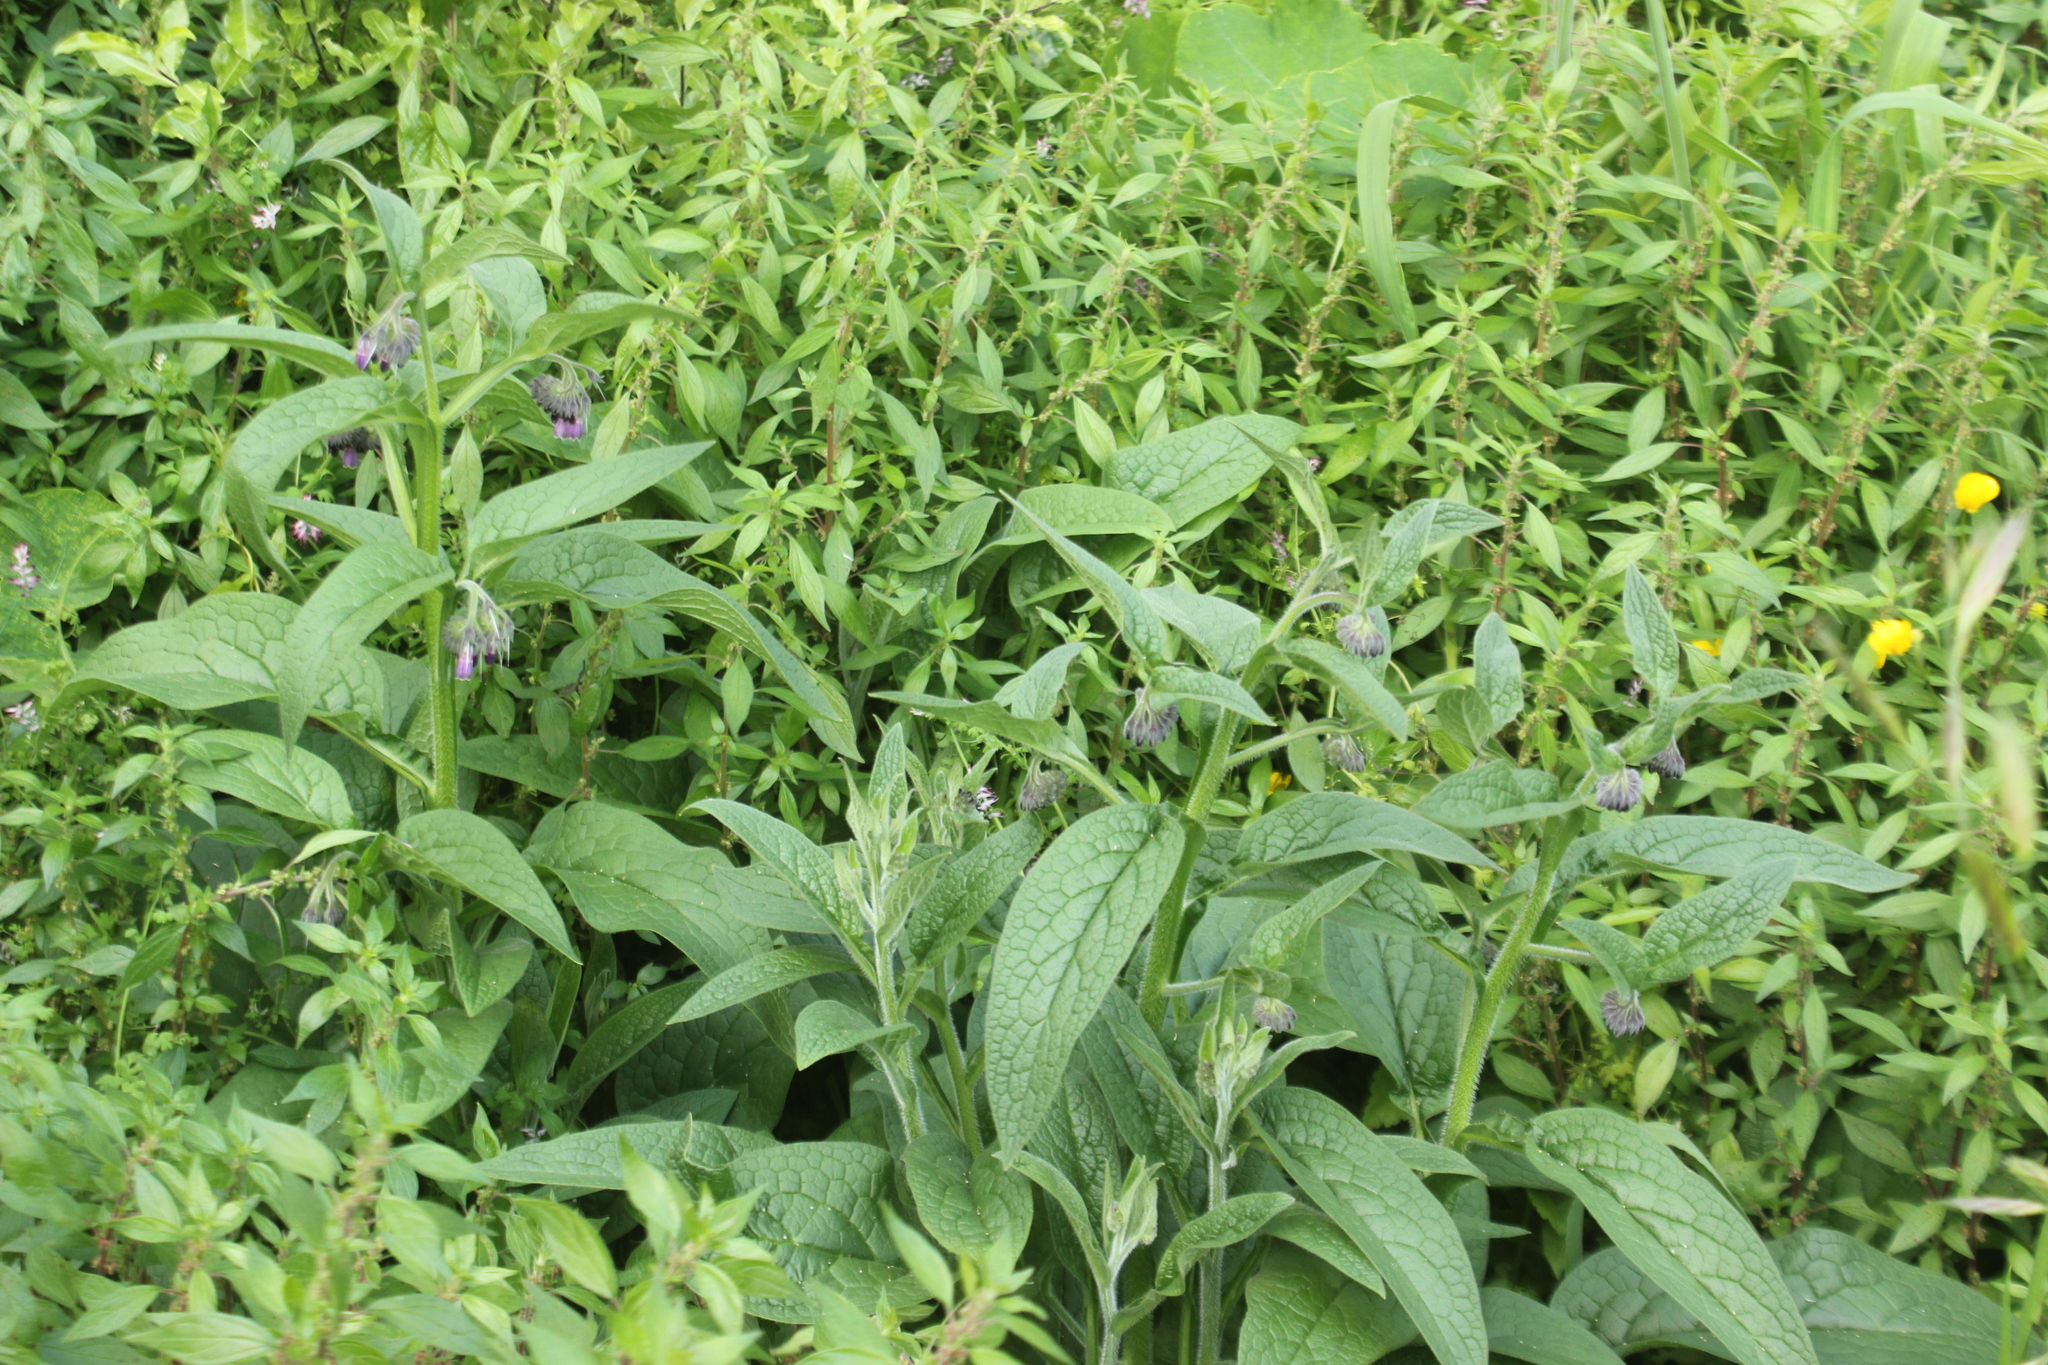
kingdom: Plantae
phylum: Tracheophyta
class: Magnoliopsida
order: Boraginales
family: Boraginaceae
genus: Symphytum
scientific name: Symphytum officinale
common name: Common comfrey
